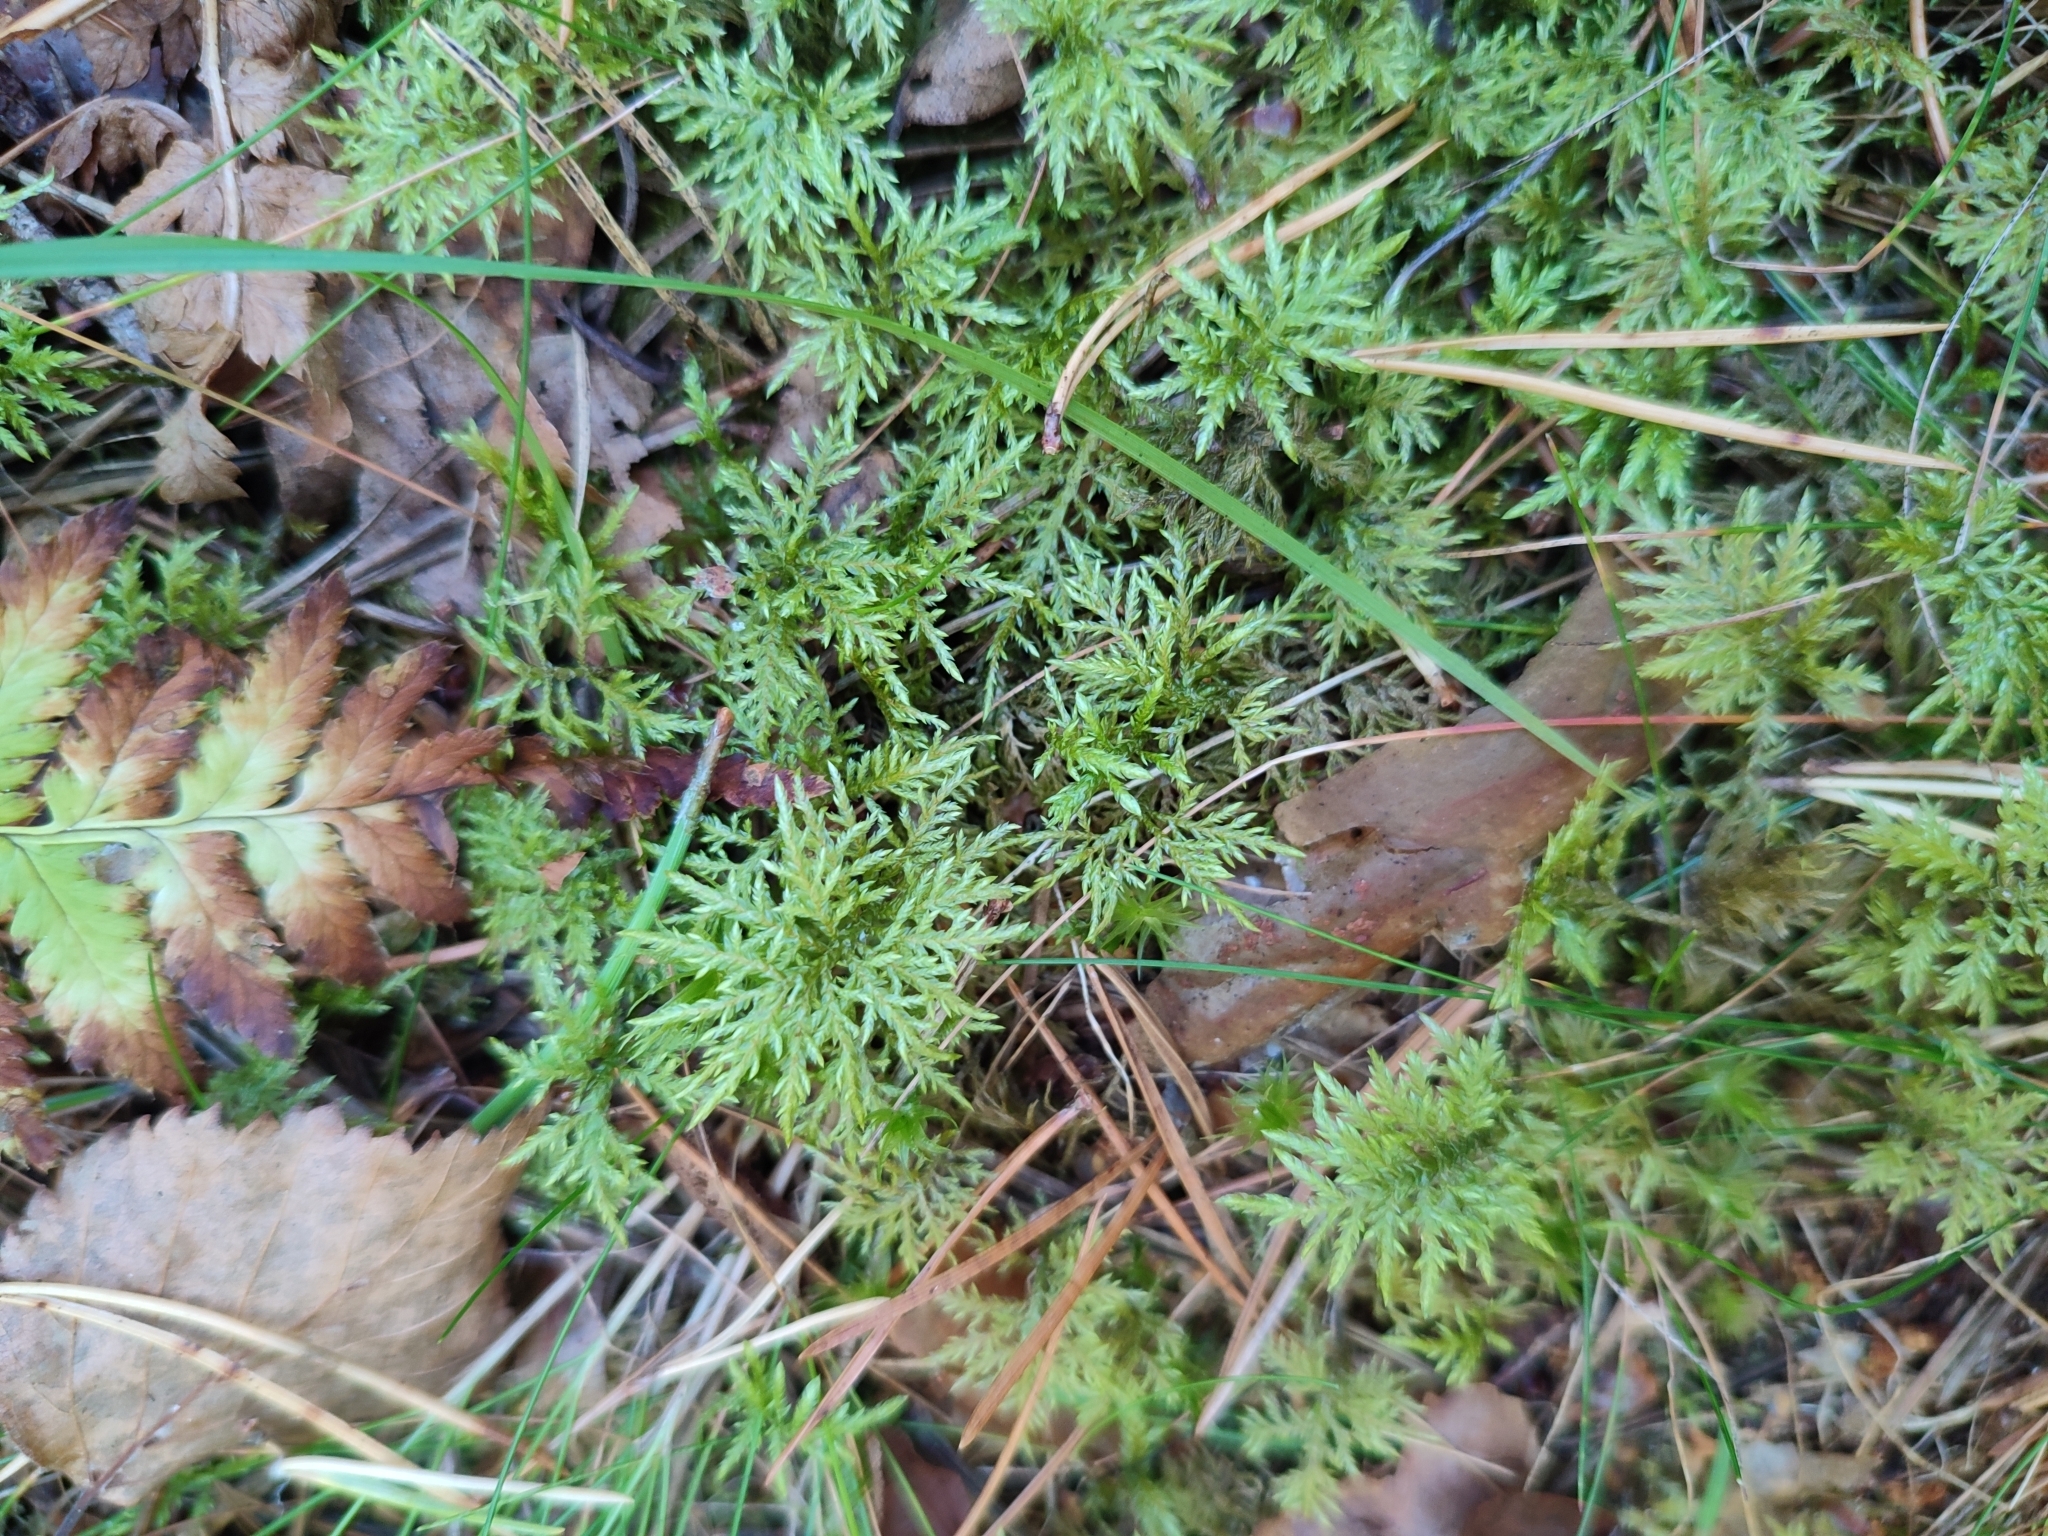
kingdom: Plantae
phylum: Bryophyta
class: Bryopsida
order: Hypnales
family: Hylocomiaceae
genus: Hylocomium
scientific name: Hylocomium splendens
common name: Stairstep moss
